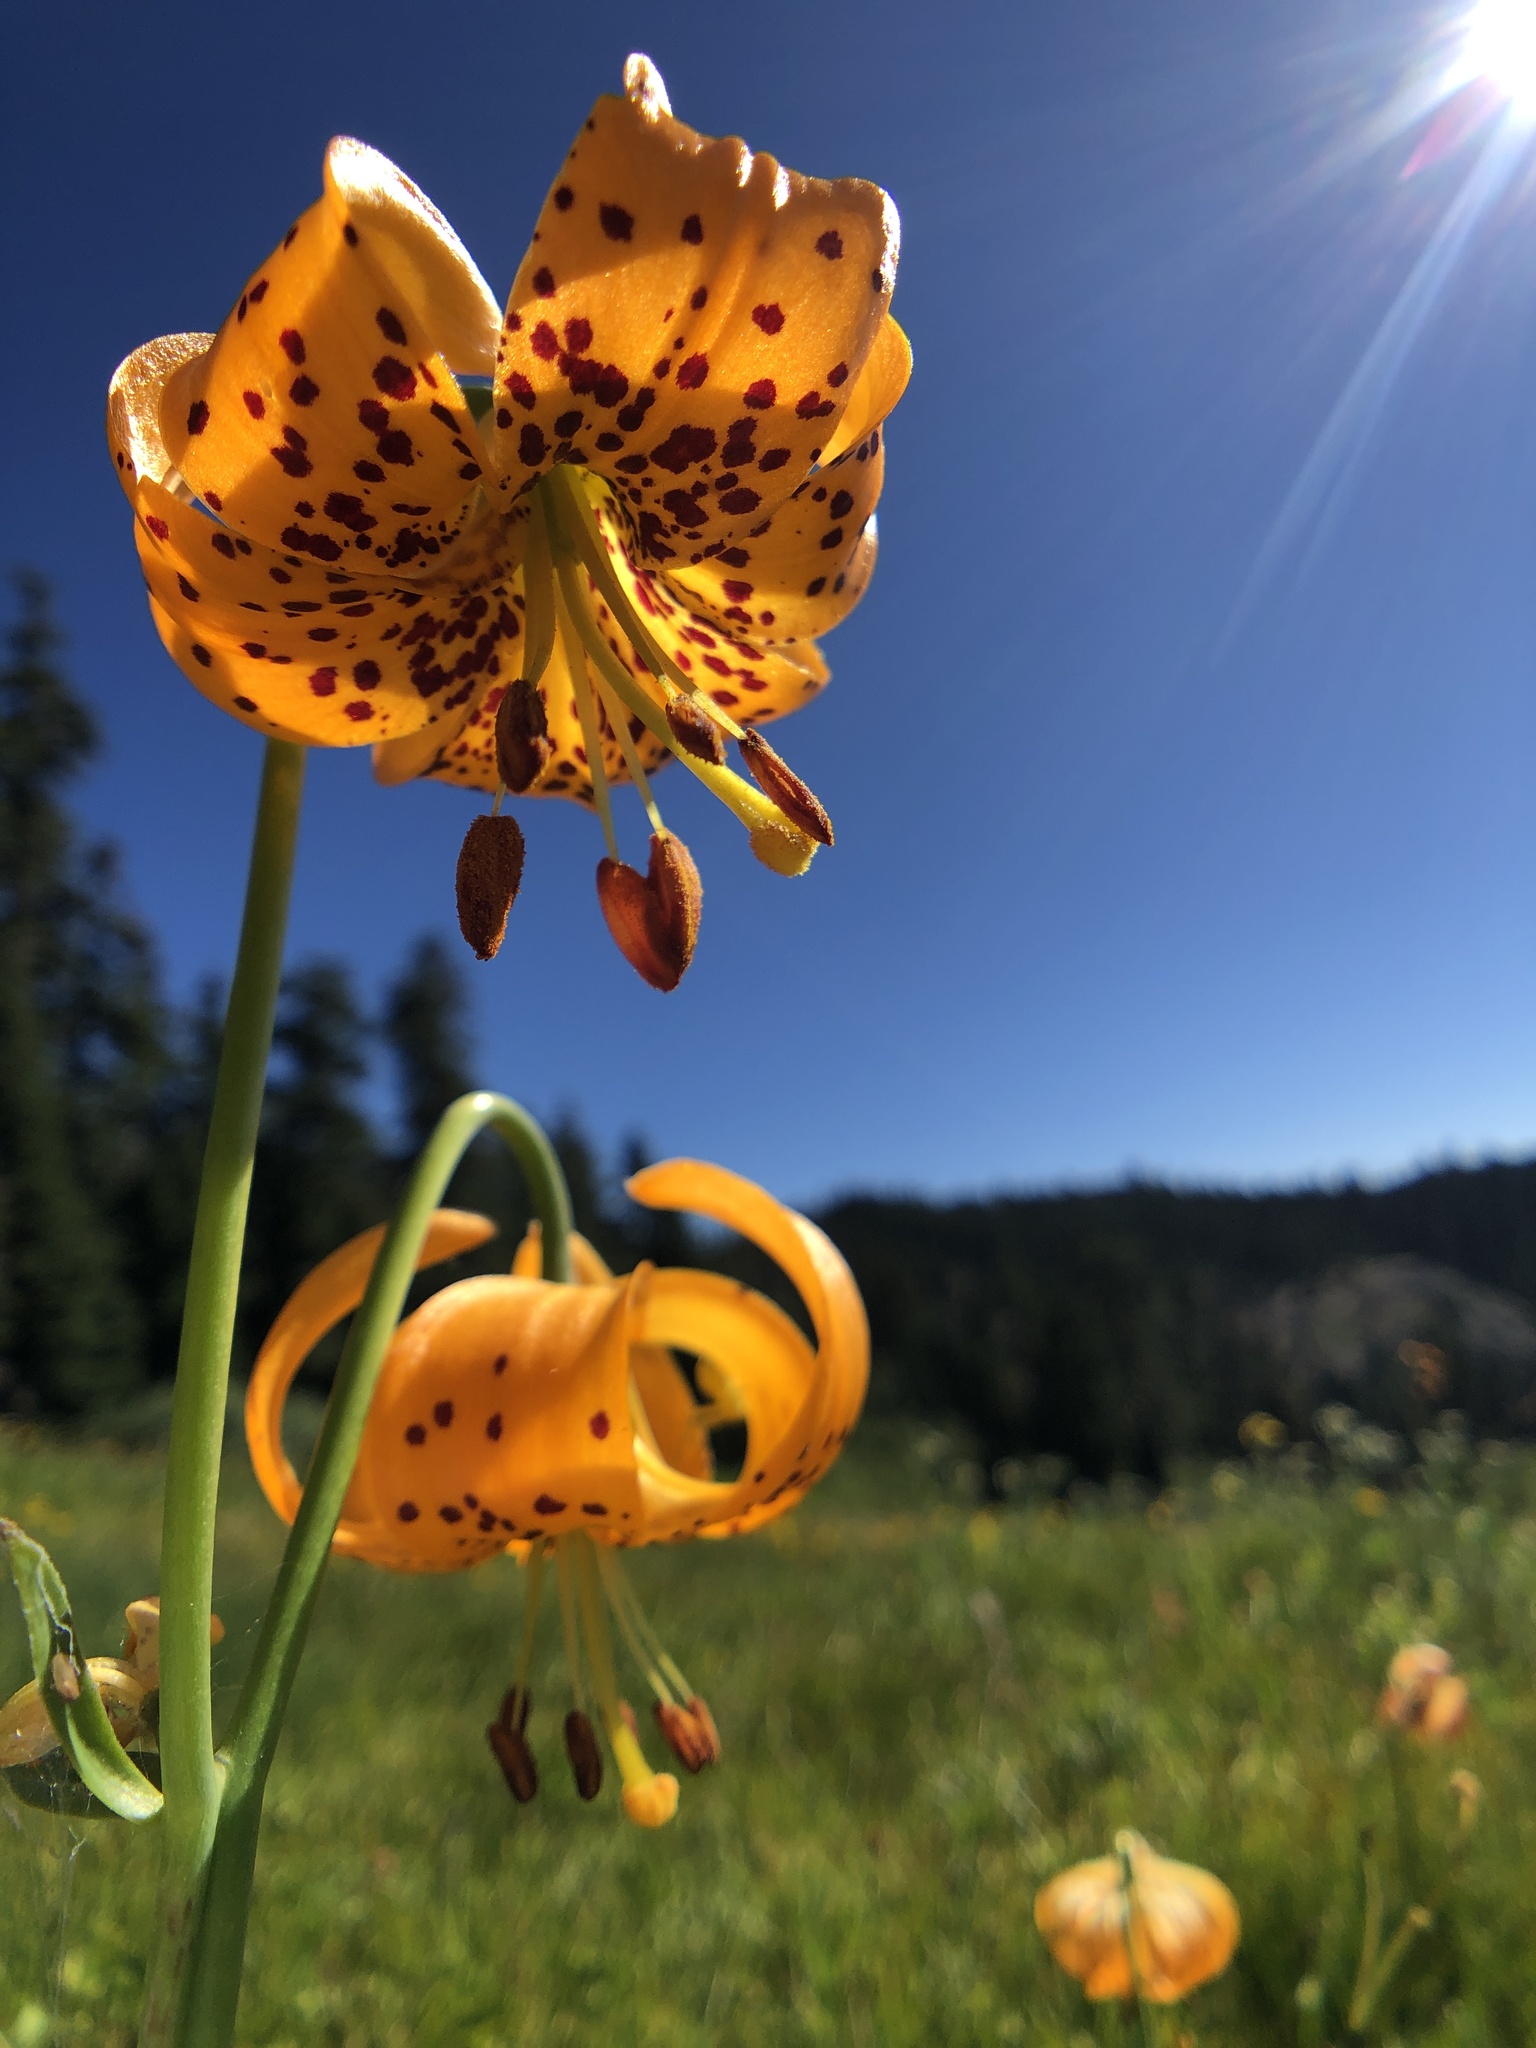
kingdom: Plantae
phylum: Tracheophyta
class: Liliopsida
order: Liliales
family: Liliaceae
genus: Lilium
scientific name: Lilium pardalinum
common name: Panther lily
